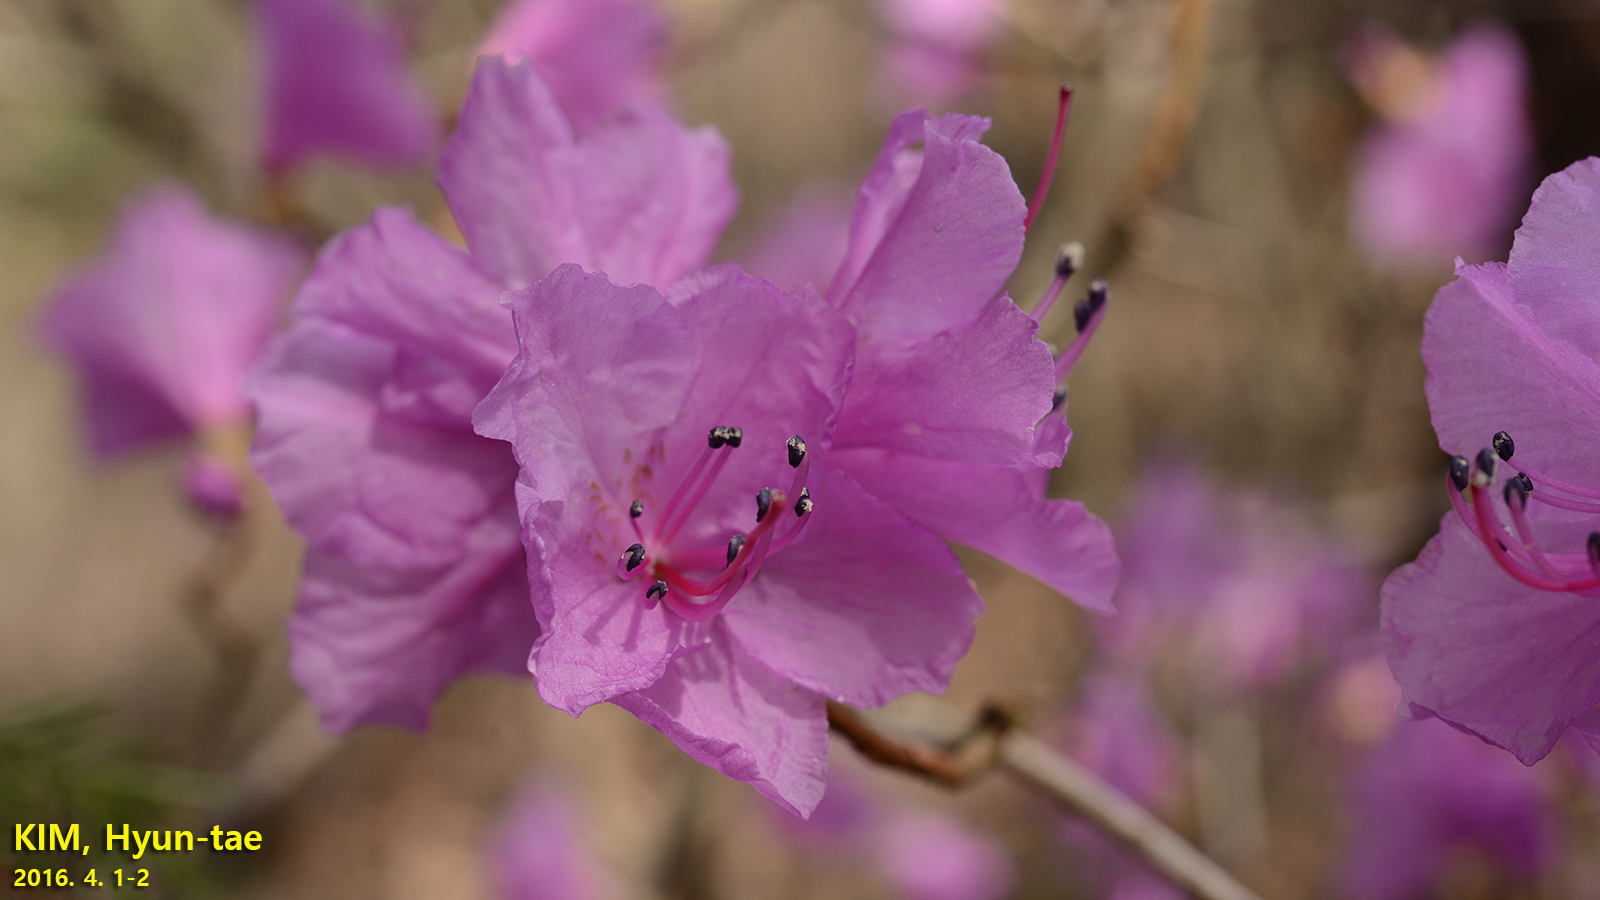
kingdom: Plantae
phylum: Tracheophyta
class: Magnoliopsida
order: Ericales
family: Ericaceae
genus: Rhododendron
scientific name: Rhododendron mucronulatum
